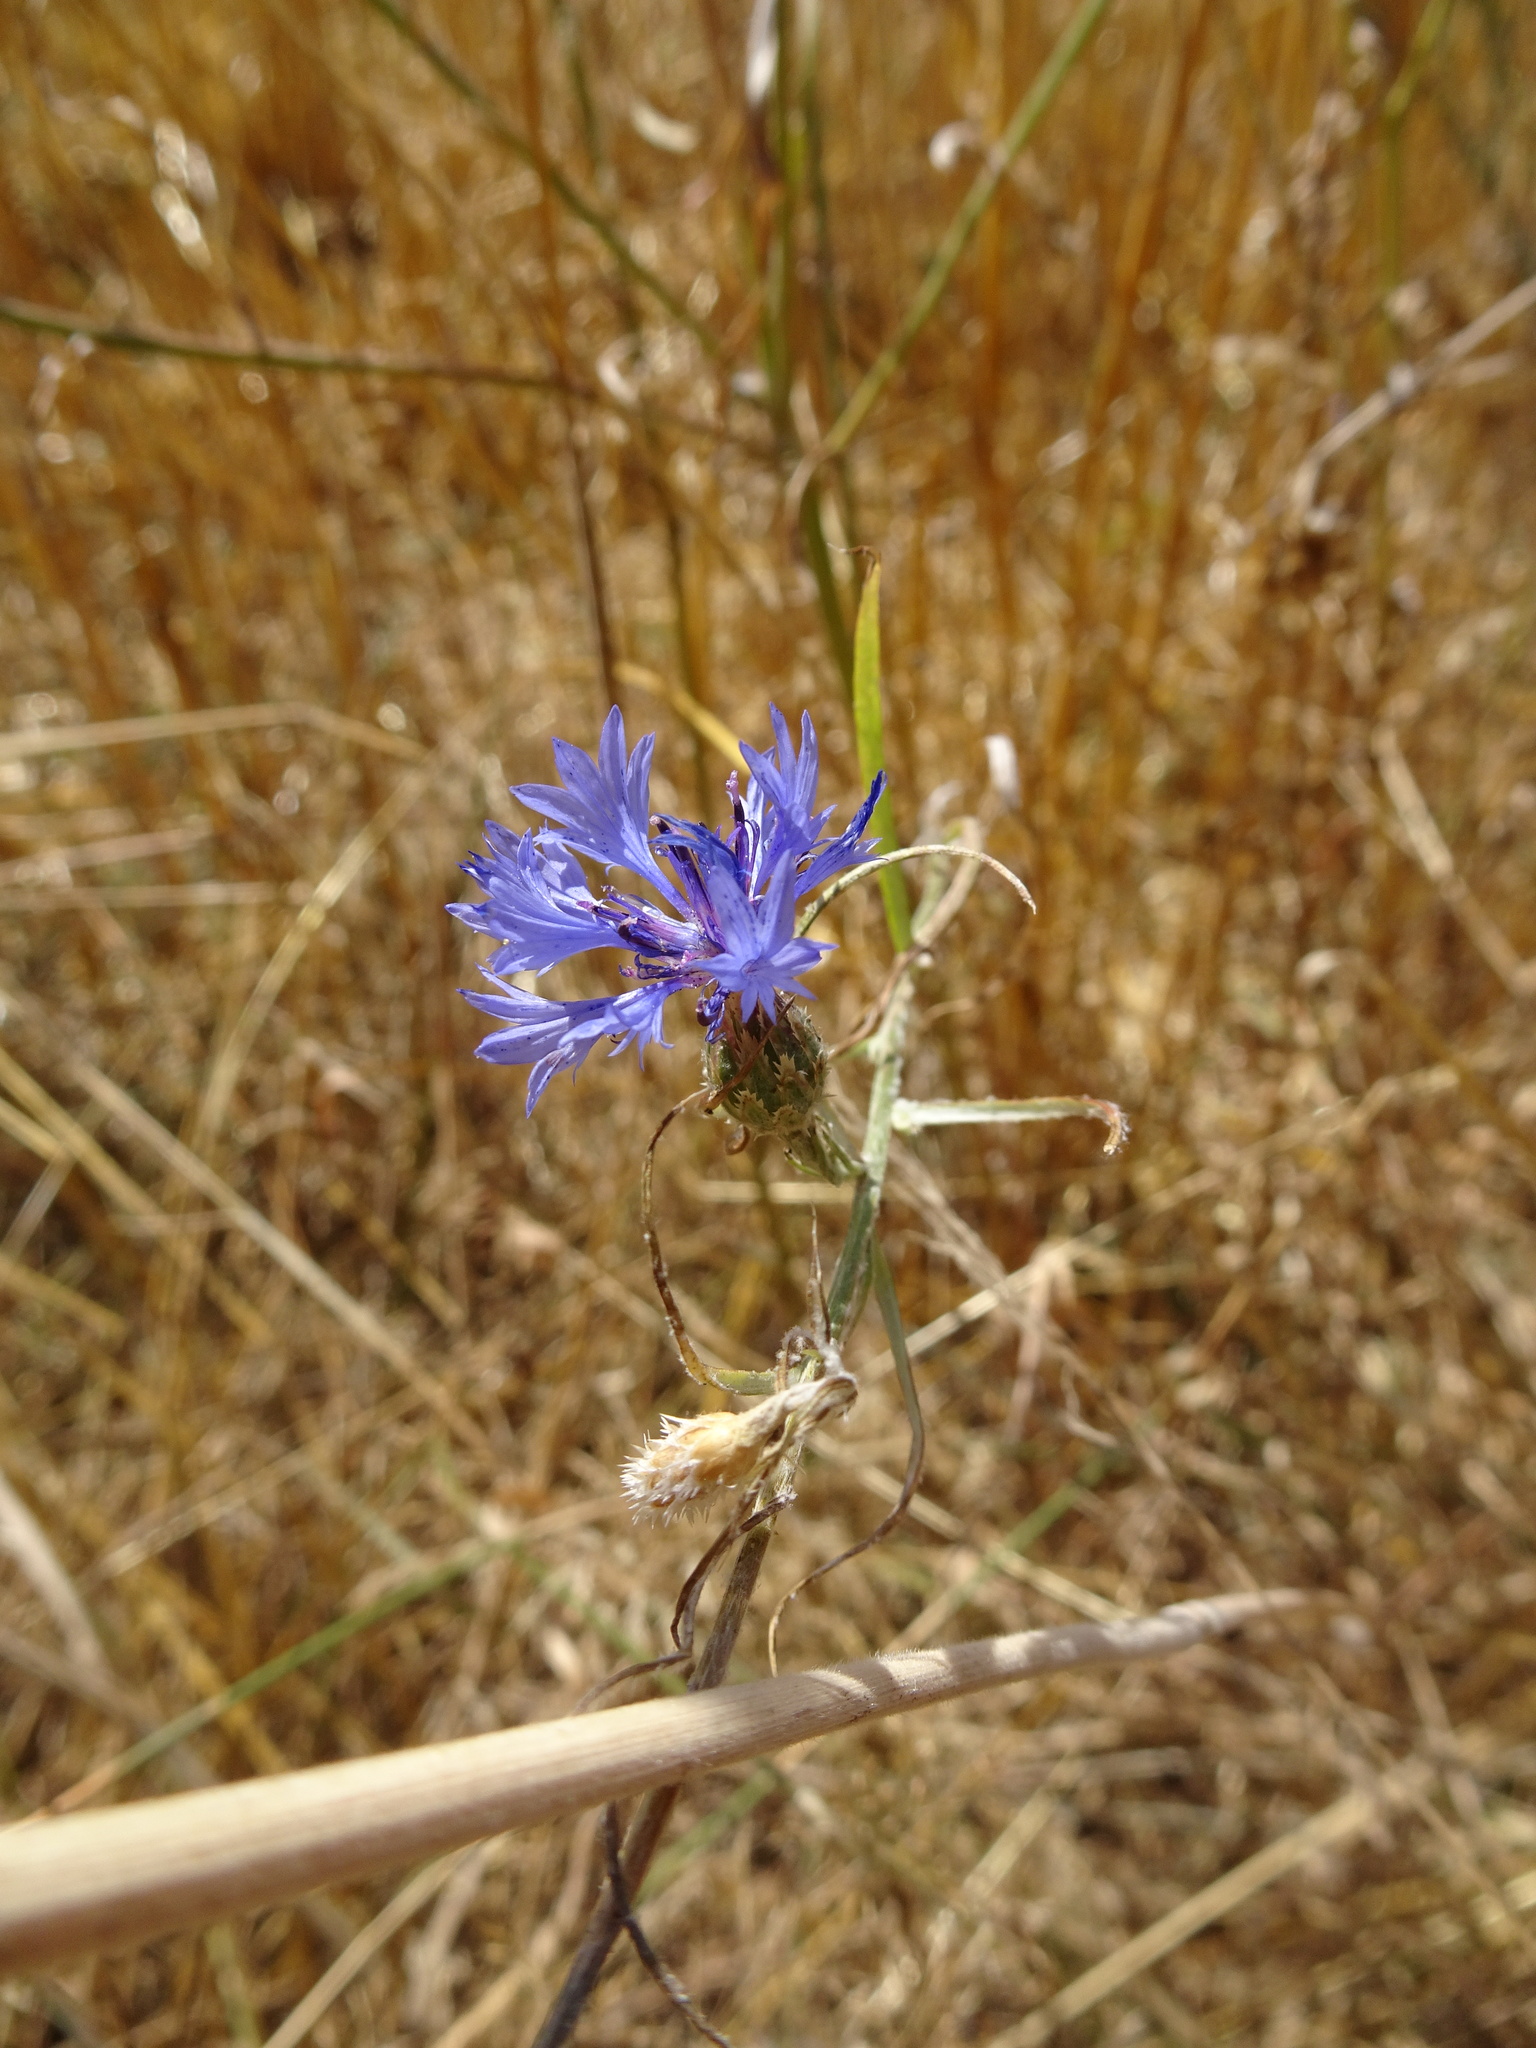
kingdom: Plantae
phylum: Tracheophyta
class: Magnoliopsida
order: Asterales
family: Asteraceae
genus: Centaurea
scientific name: Centaurea cyanus
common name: Cornflower
